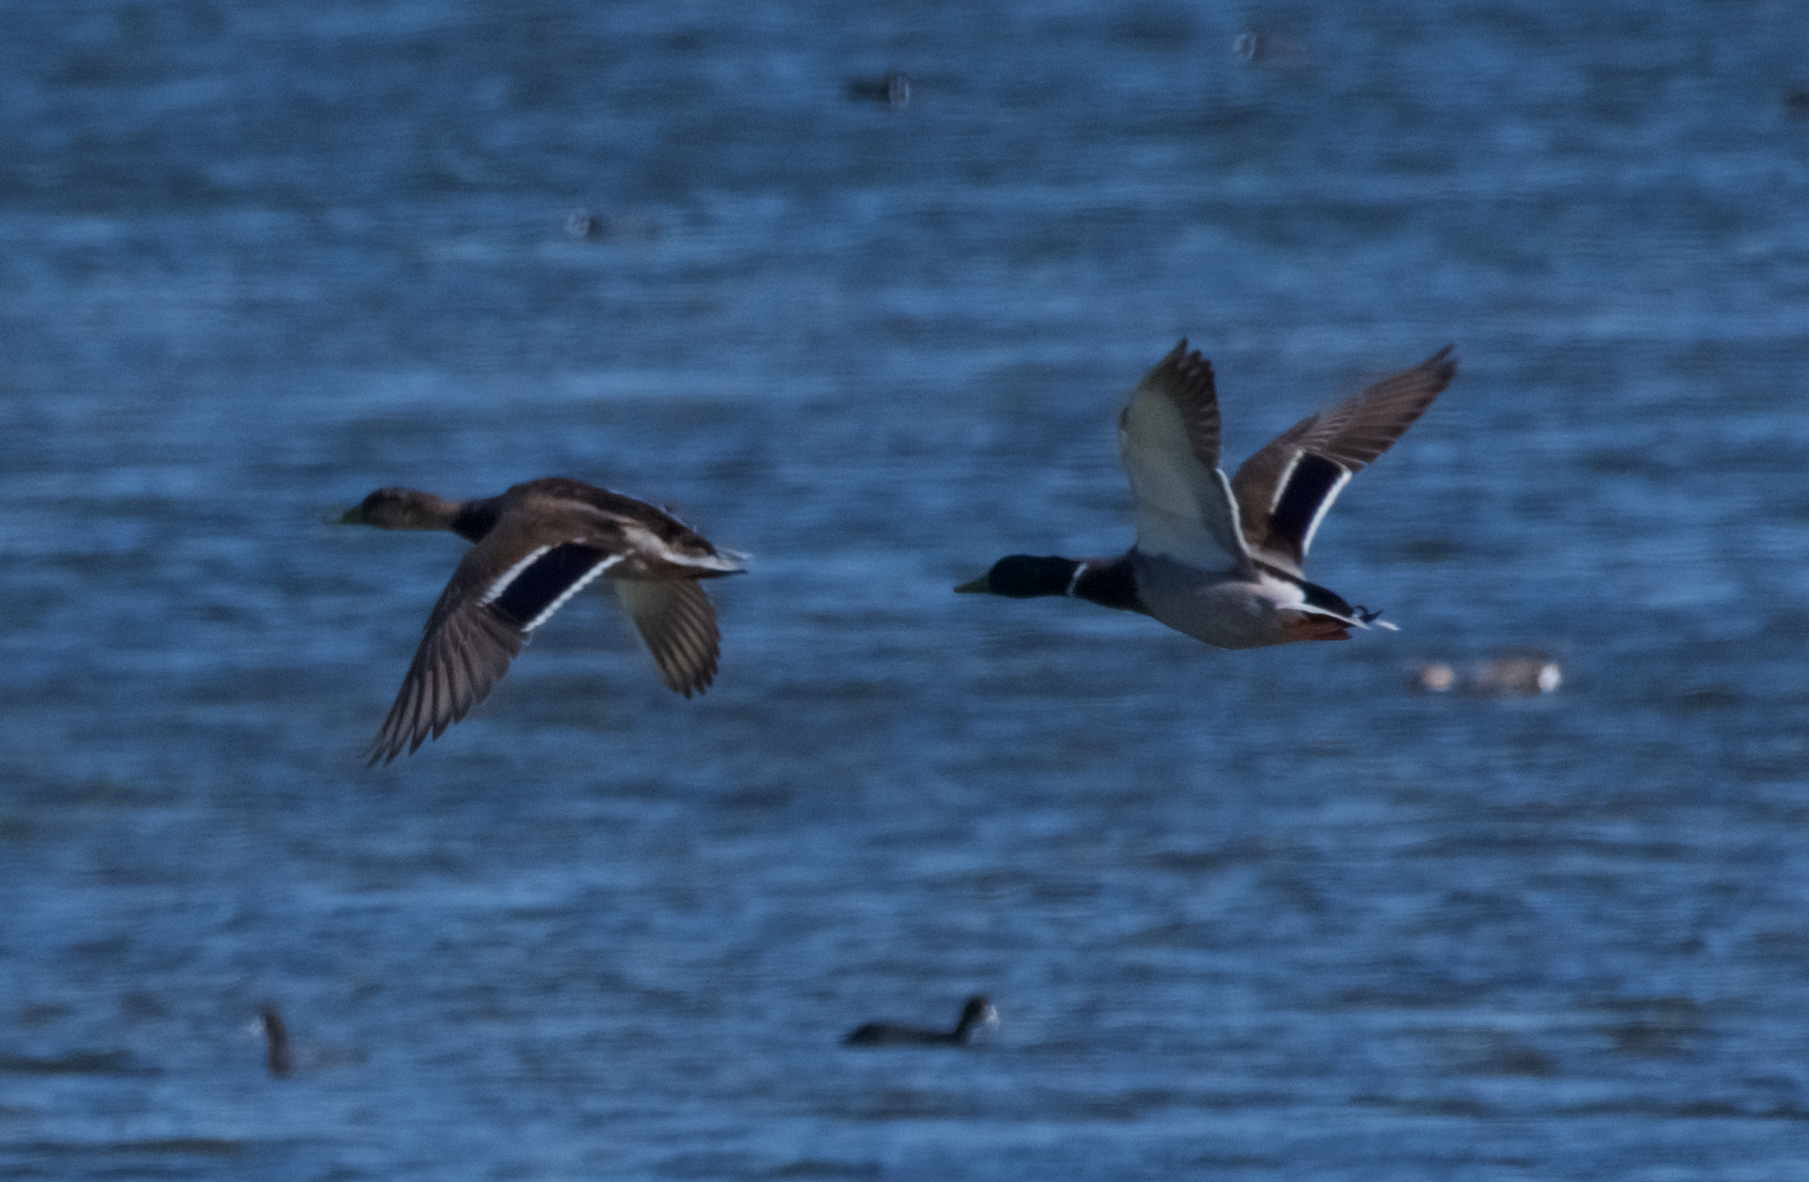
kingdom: Animalia
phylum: Chordata
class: Aves
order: Anseriformes
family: Anatidae
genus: Anas
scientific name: Anas platyrhynchos
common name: Mallard
